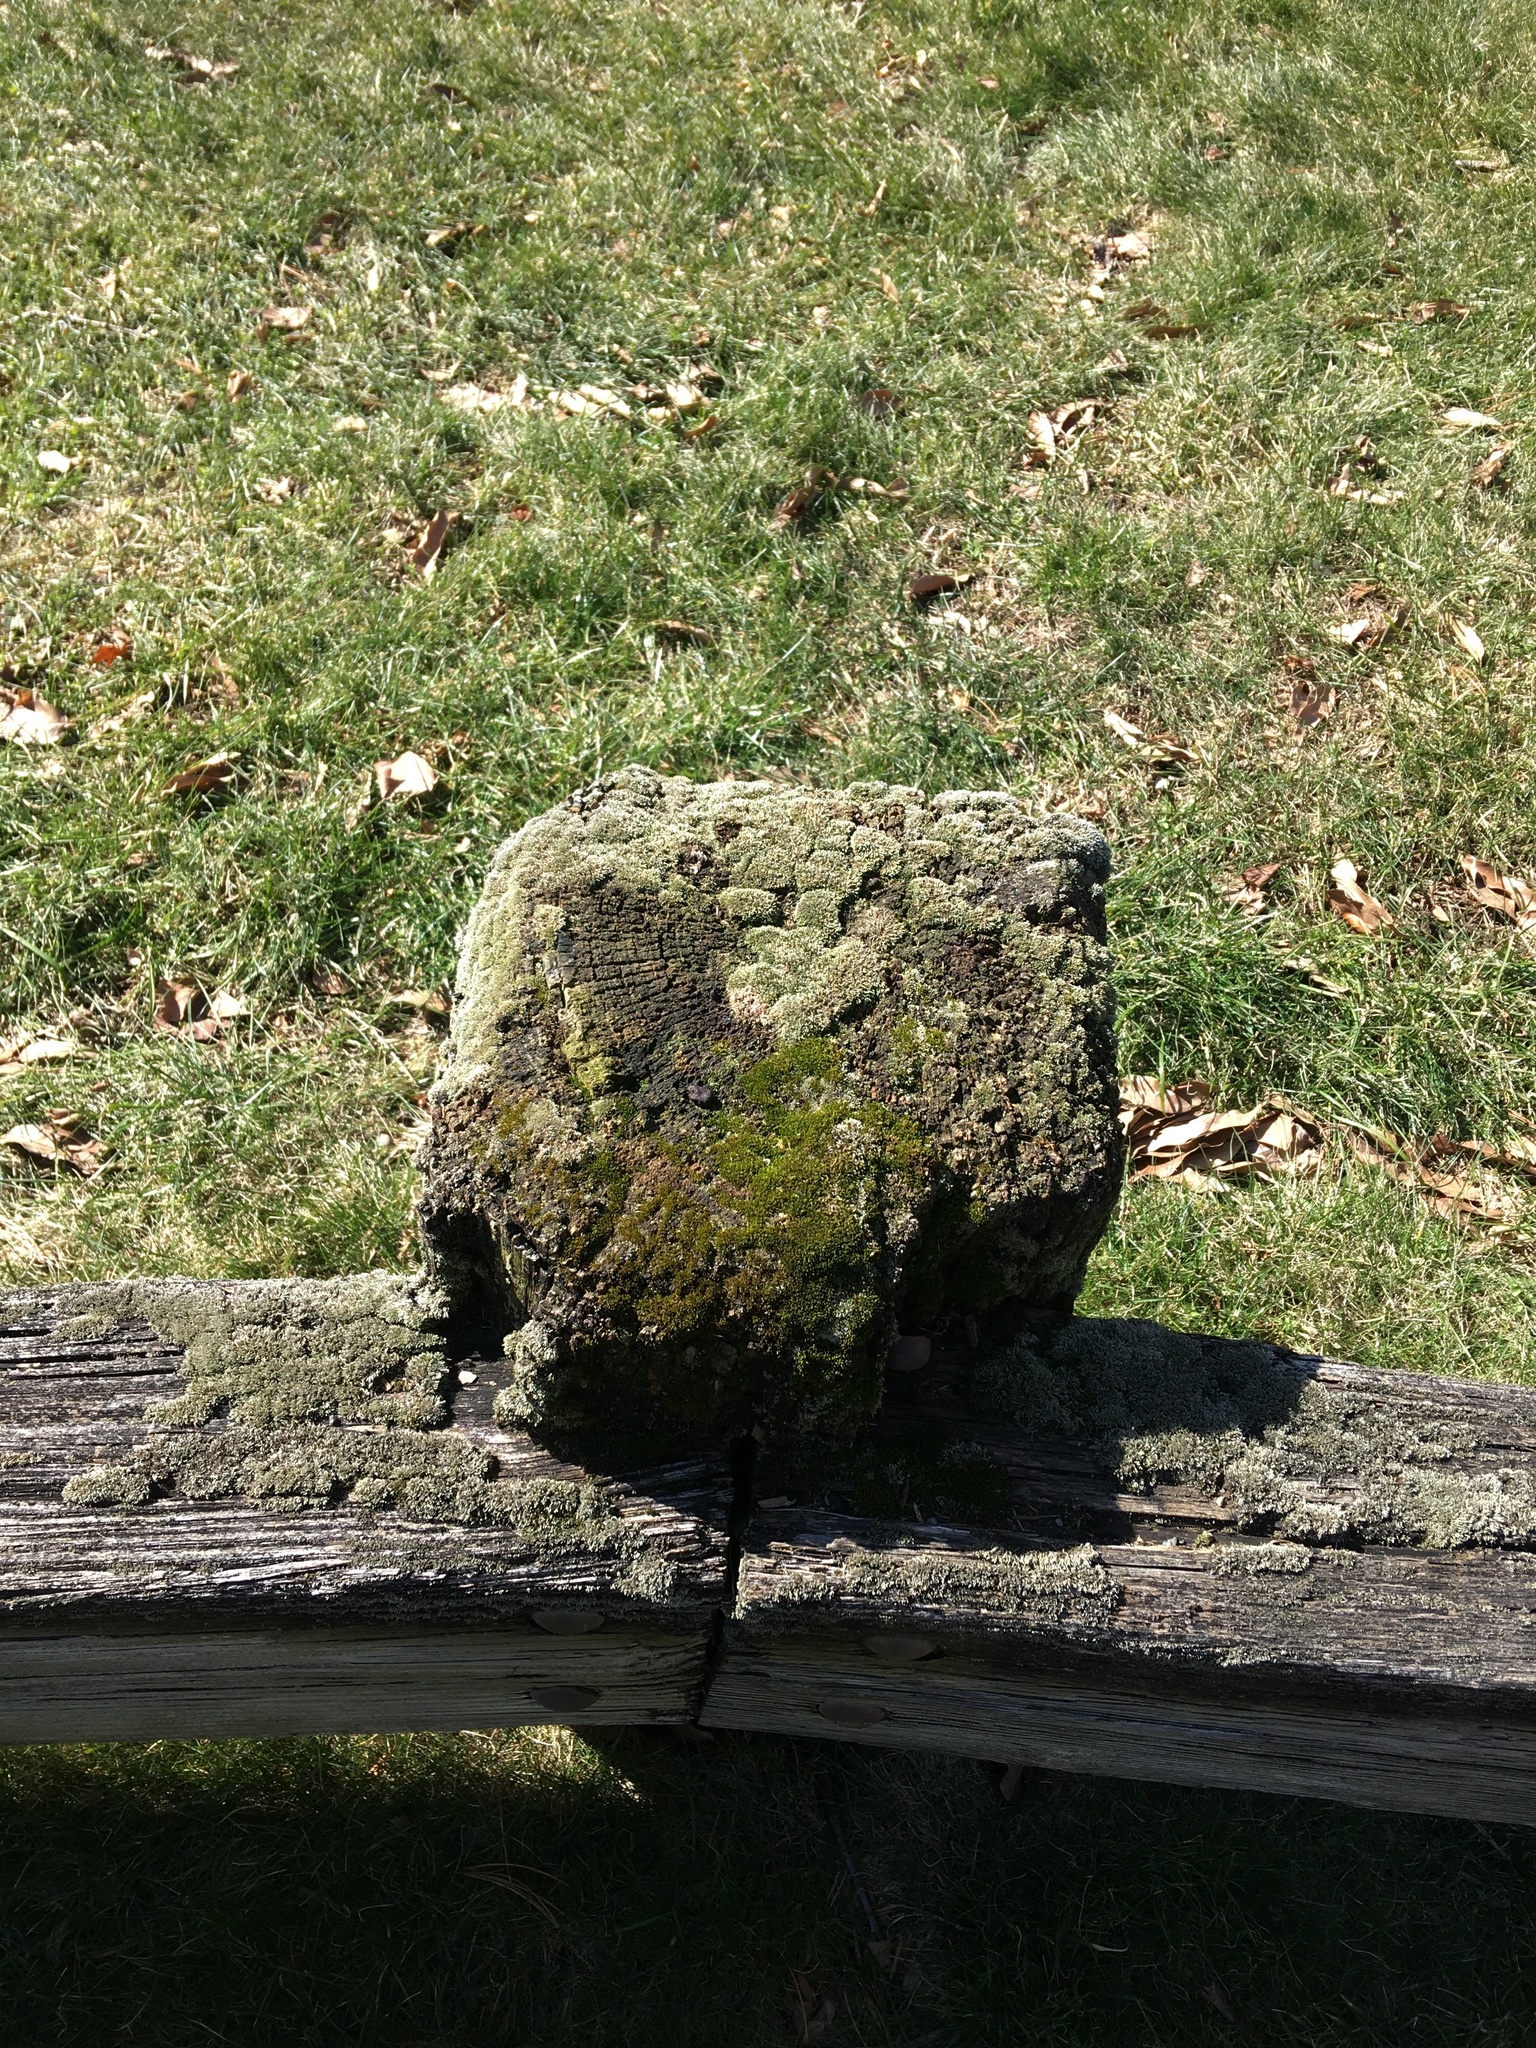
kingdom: Plantae
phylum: Bryophyta
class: Bryopsida
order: Bryales
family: Bryaceae
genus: Bryum
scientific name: Bryum argenteum
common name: Silver-moss
